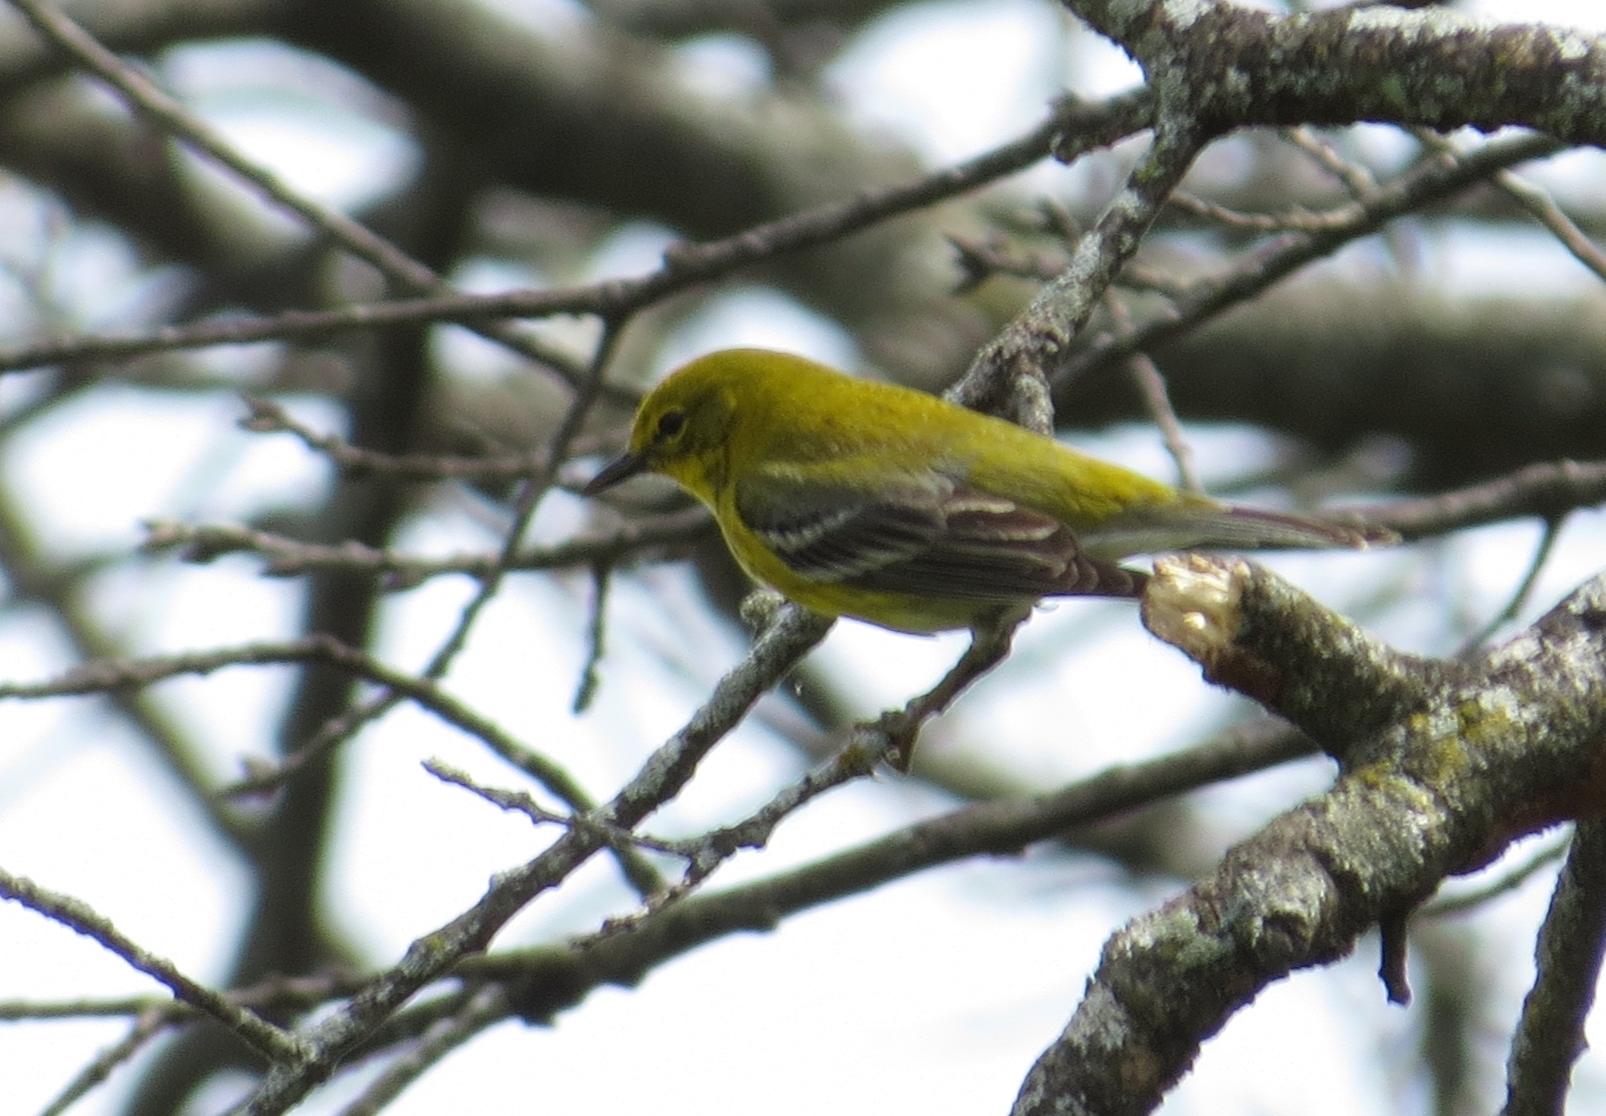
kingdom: Animalia
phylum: Chordata
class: Aves
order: Passeriformes
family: Parulidae
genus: Setophaga
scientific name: Setophaga pinus
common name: Pine warbler
